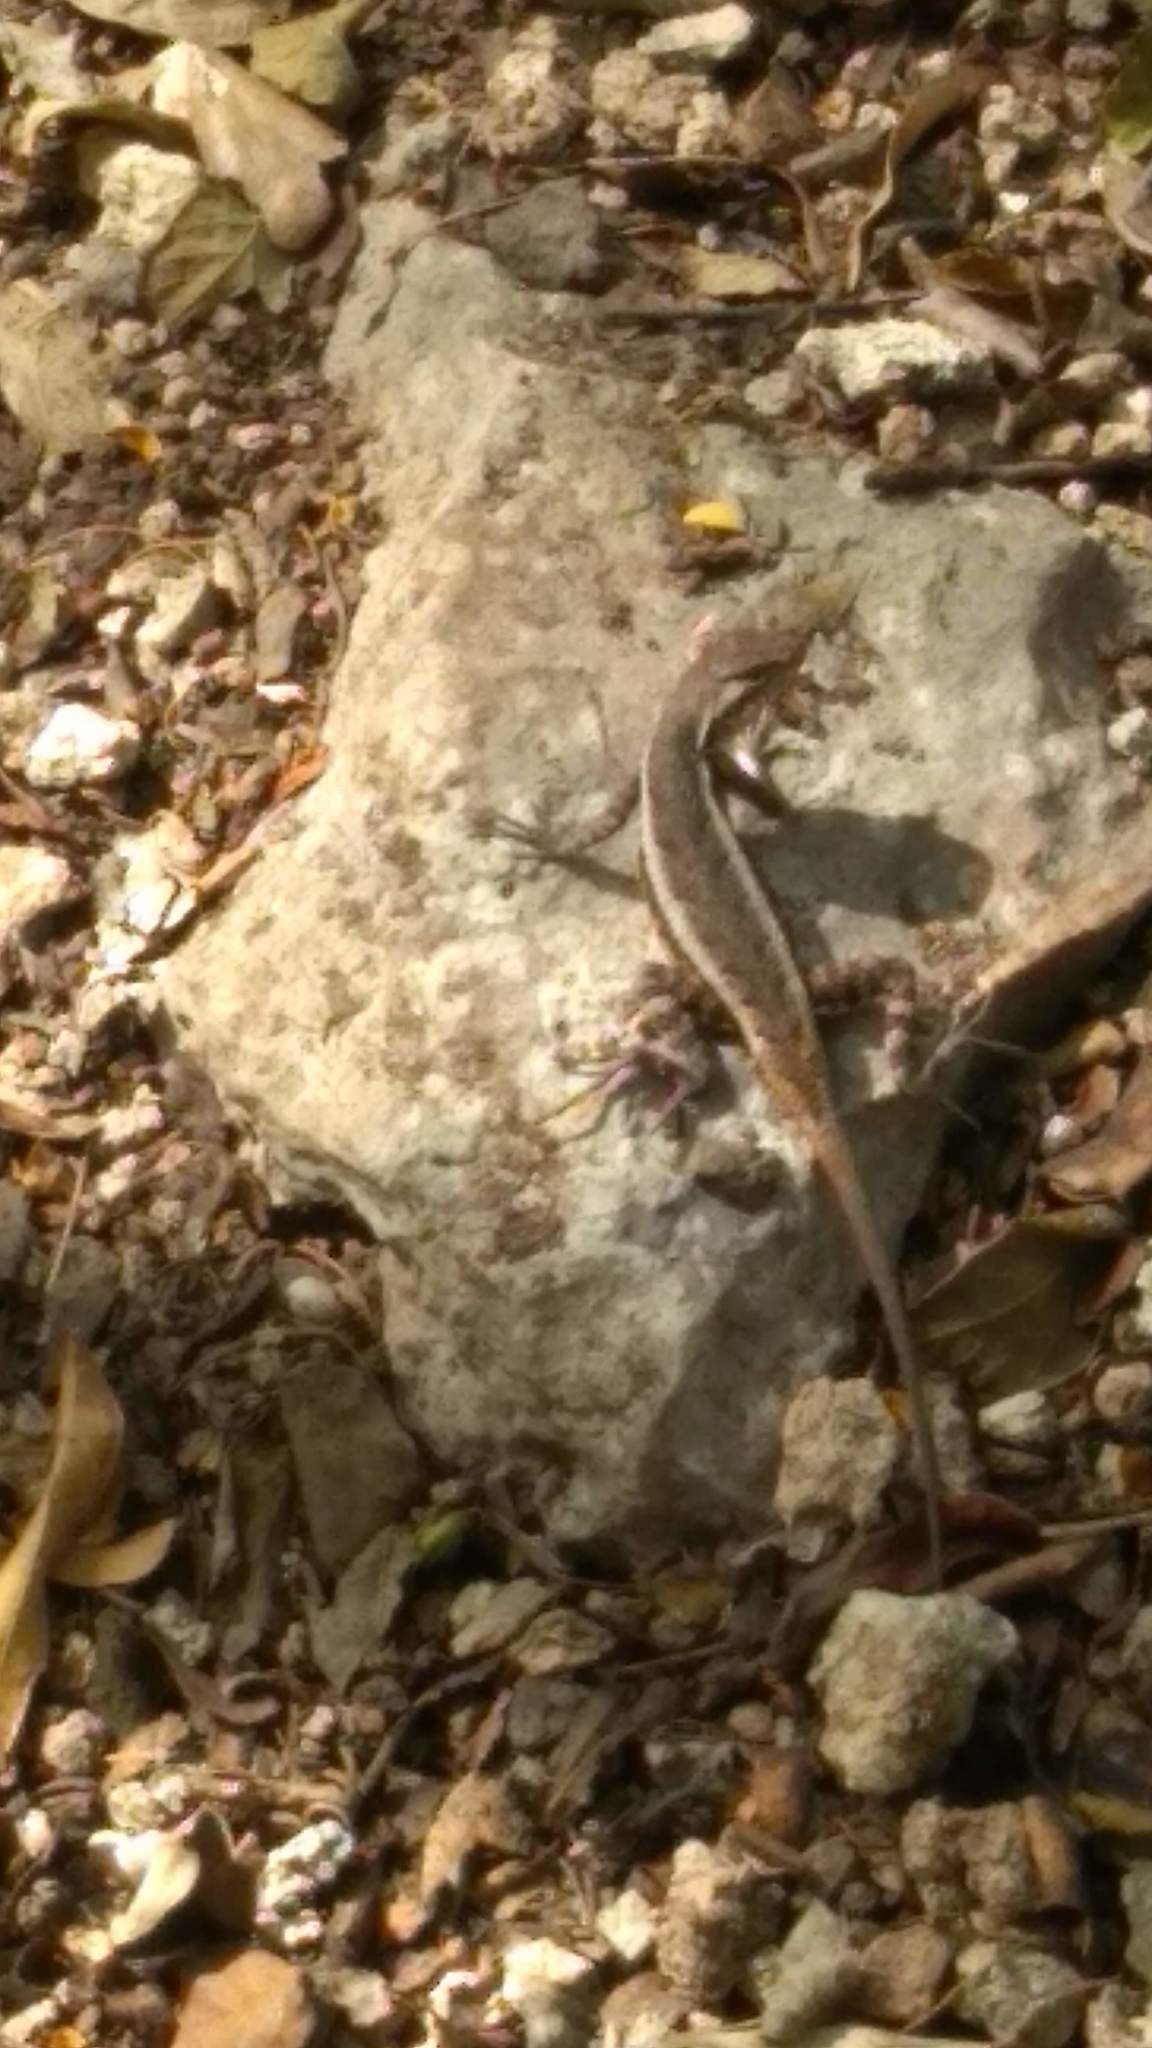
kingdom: Animalia
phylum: Chordata
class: Squamata
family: Phrynosomatidae
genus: Sceloporus
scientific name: Sceloporus chrysostictus
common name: Yellow-spotted spiny lizard
